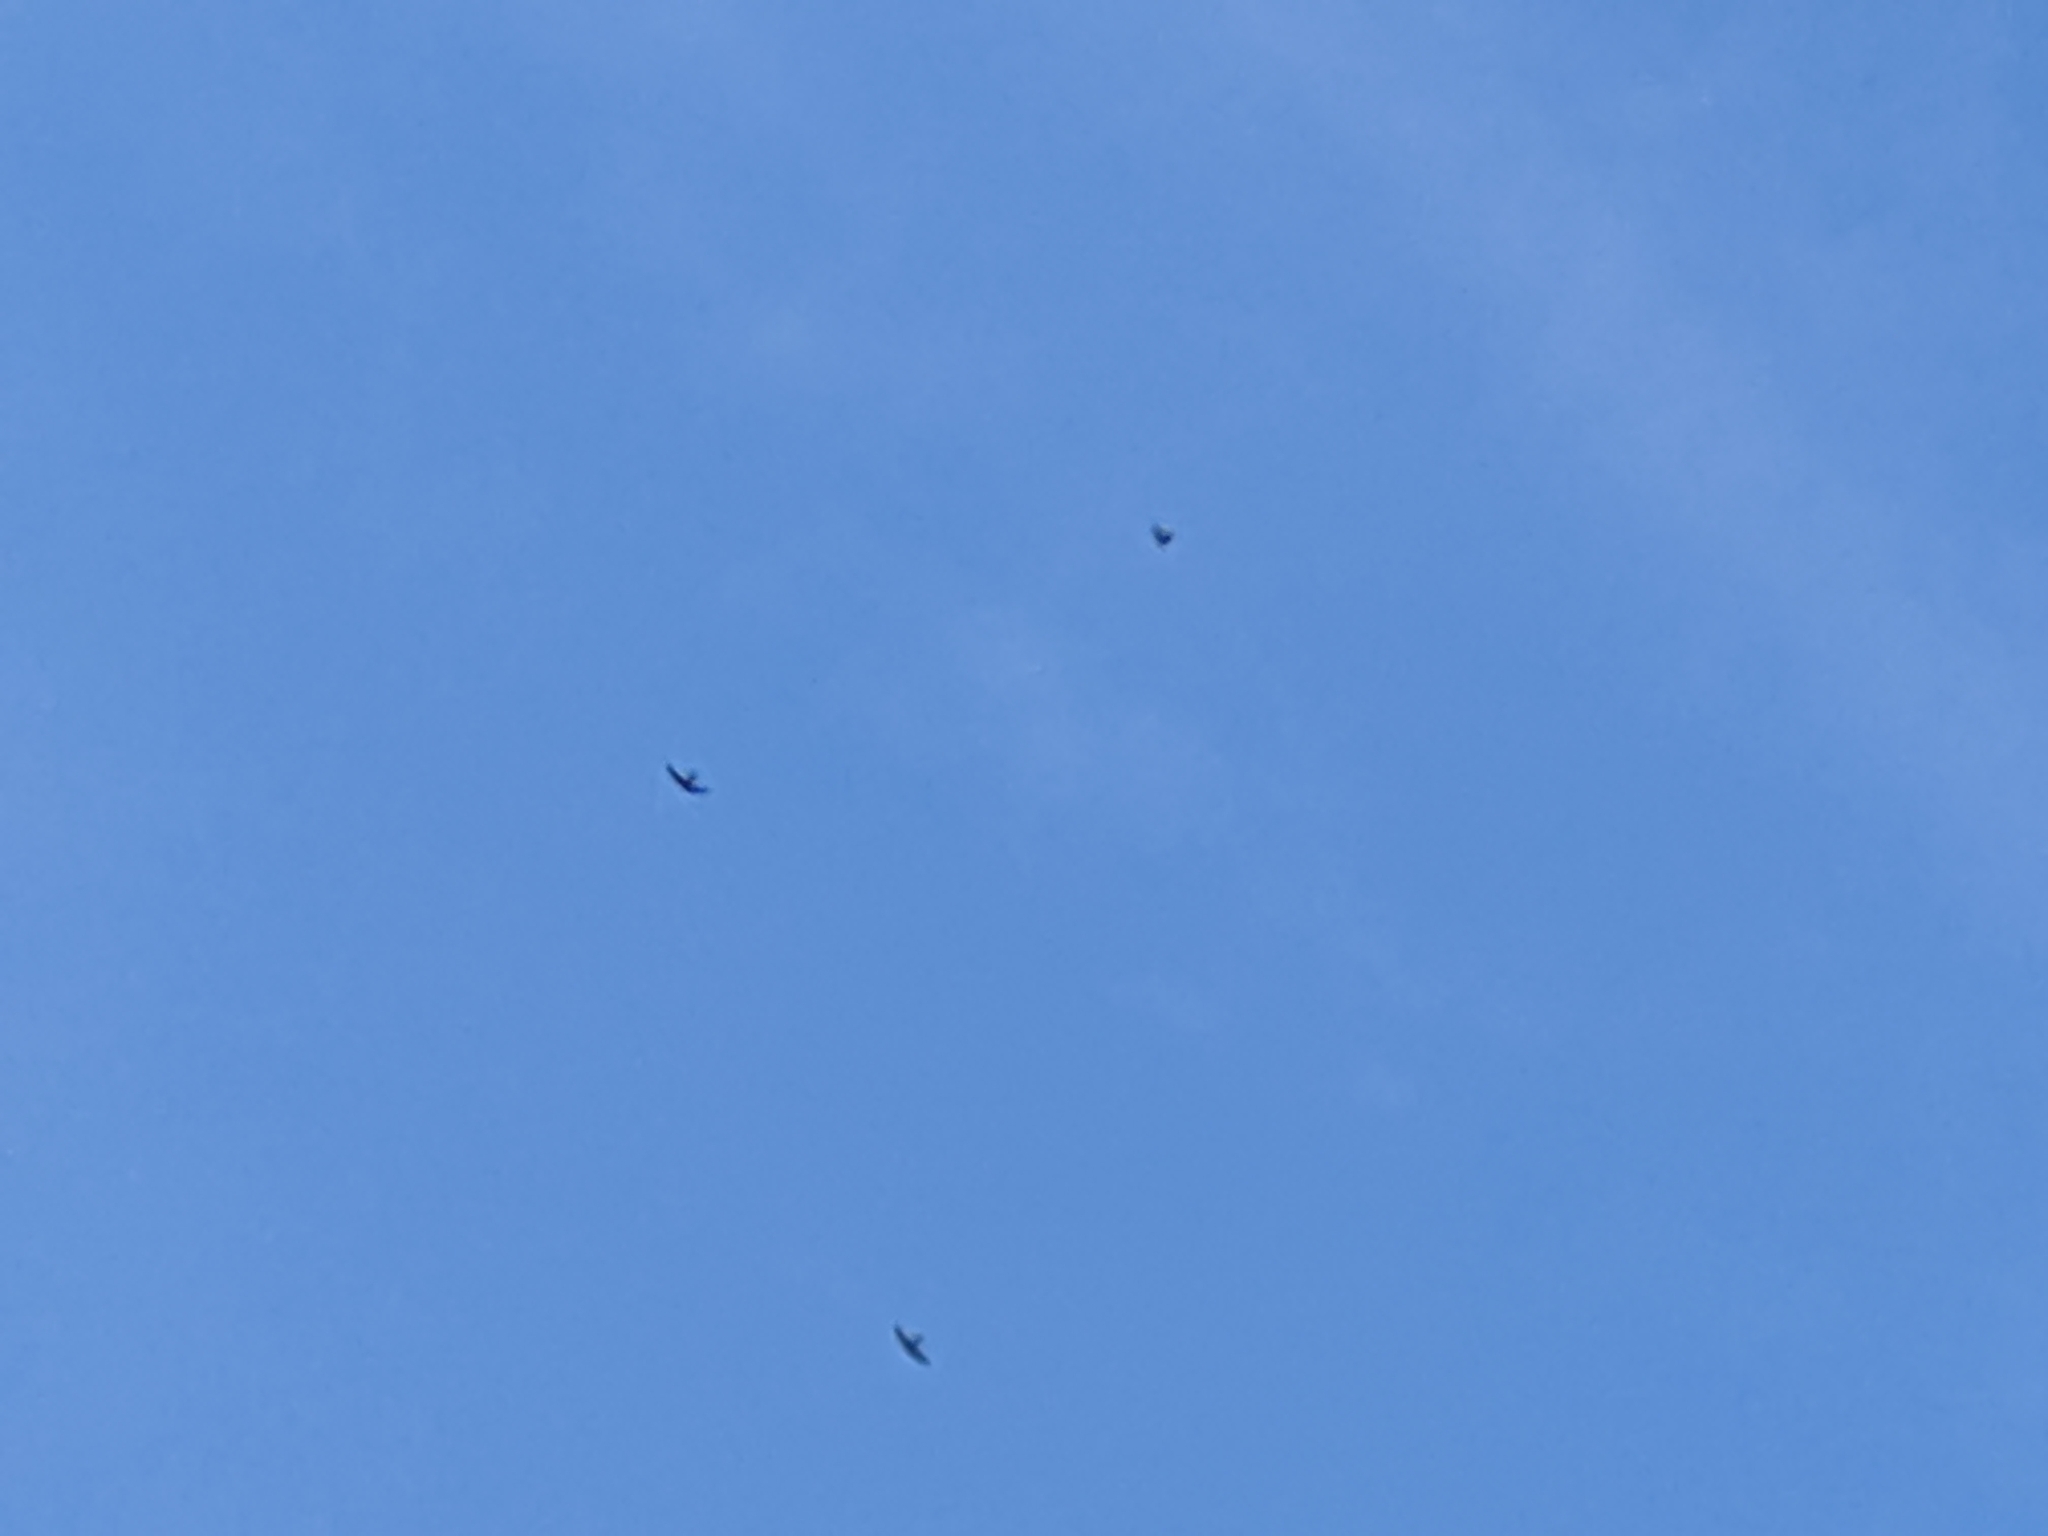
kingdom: Animalia
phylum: Chordata
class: Aves
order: Apodiformes
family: Apodidae
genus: Apus
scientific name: Apus apus
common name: Common swift
